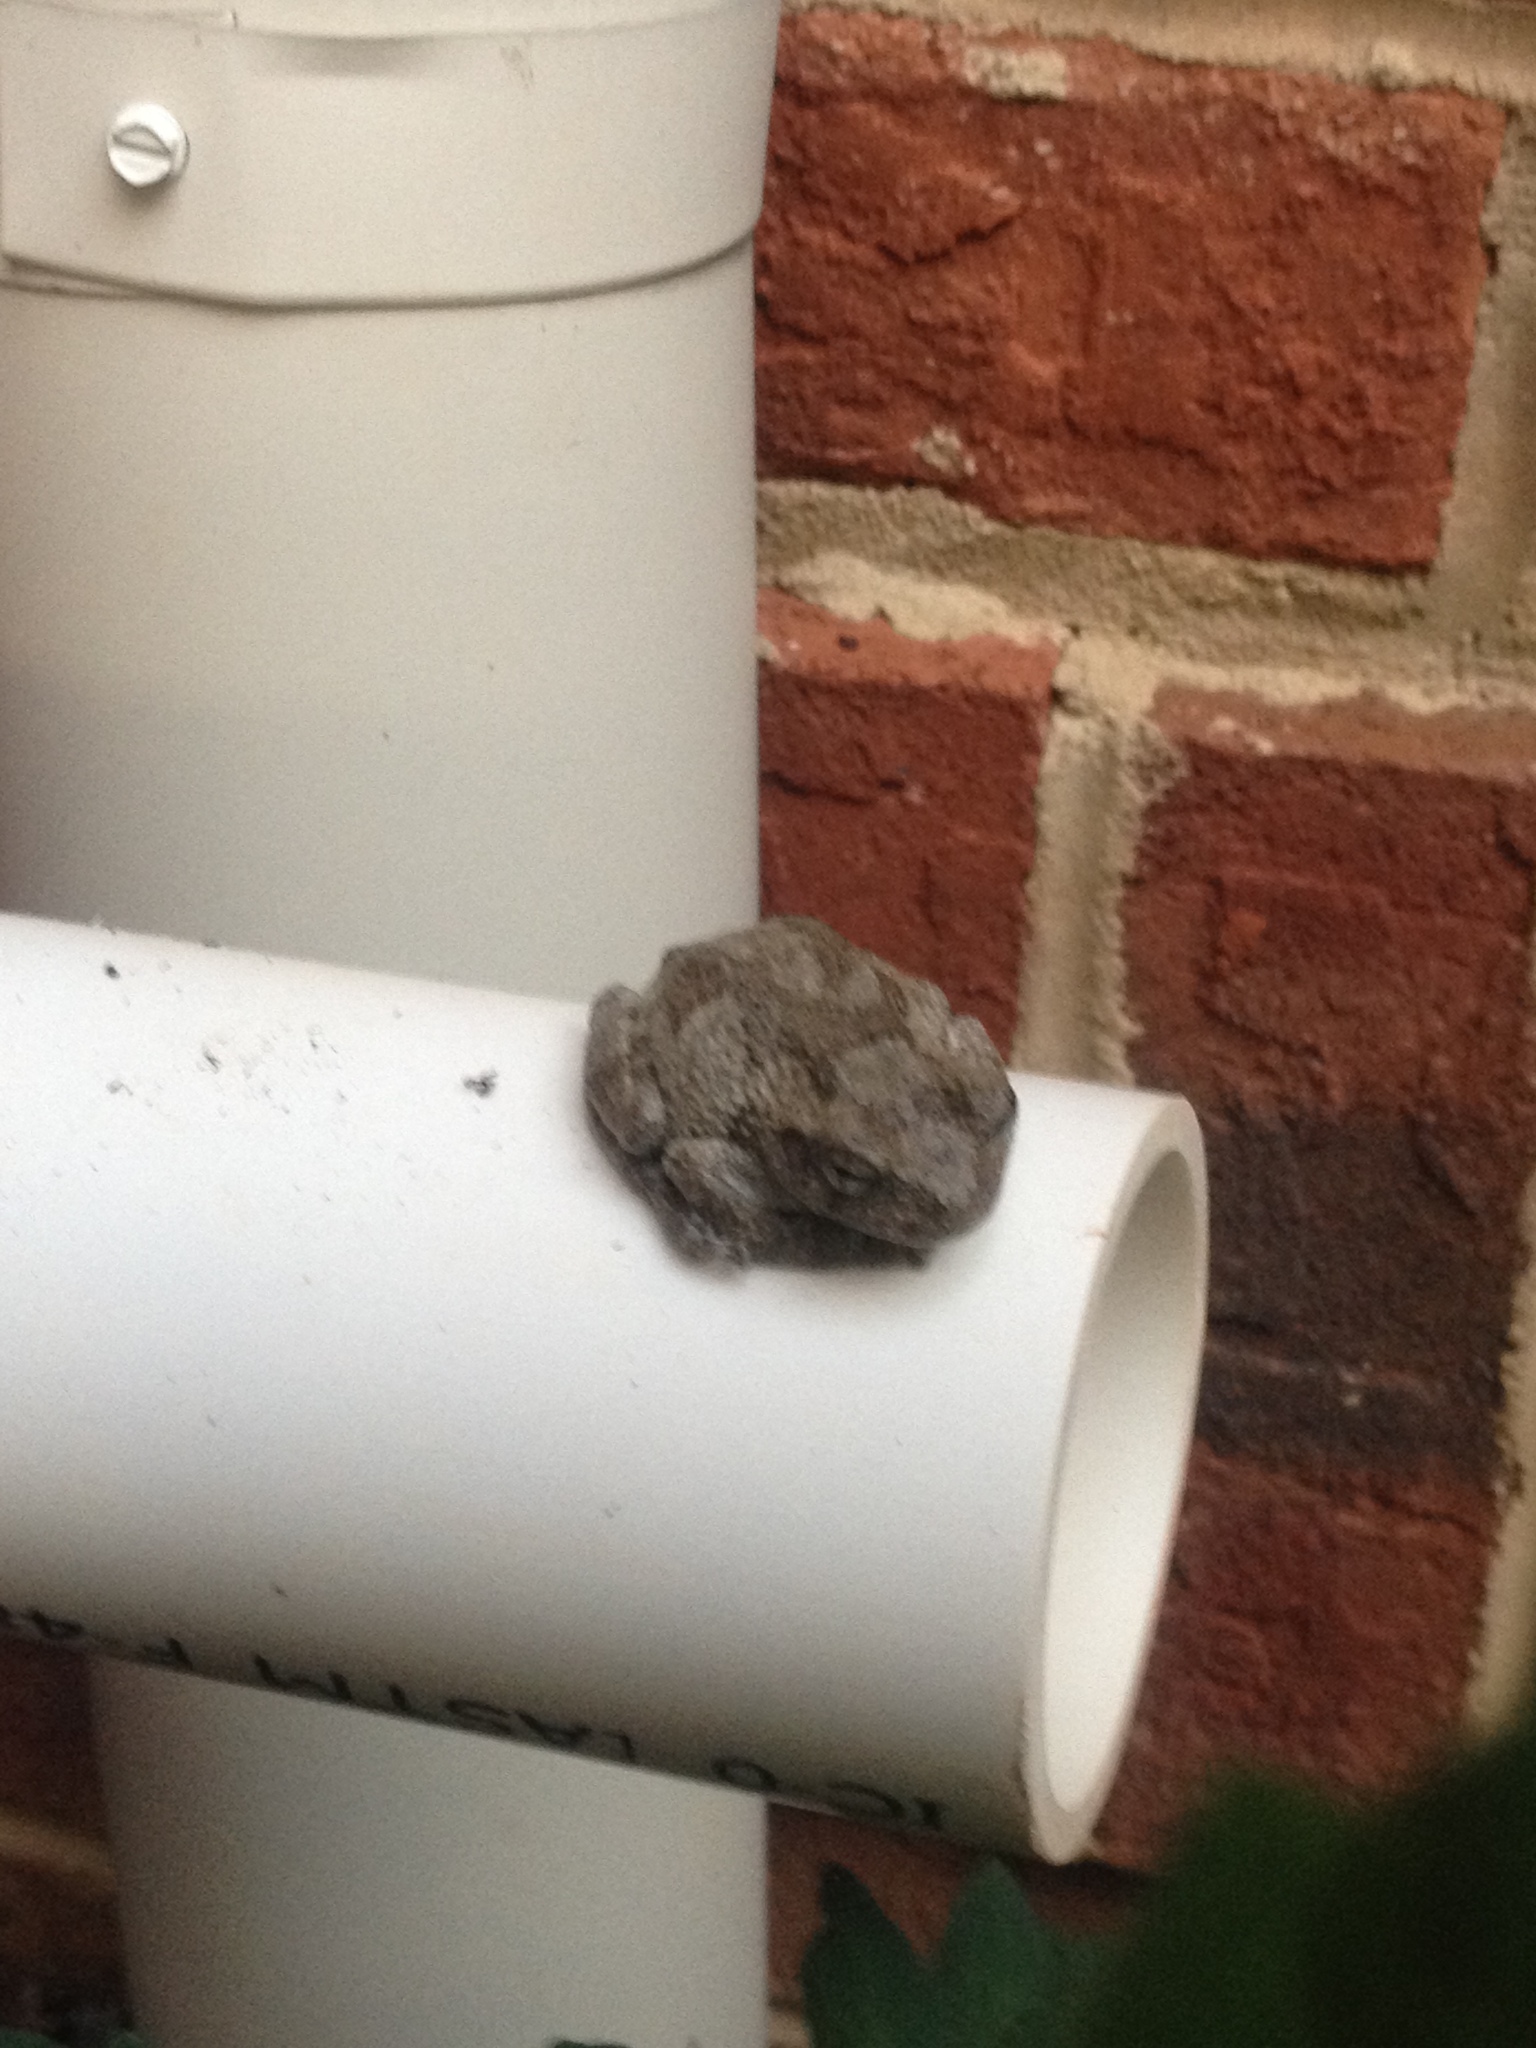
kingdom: Animalia
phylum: Chordata
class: Amphibia
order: Anura
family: Hylidae
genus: Dryophytes
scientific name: Dryophytes chrysoscelis
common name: Cope's gray treefrog
